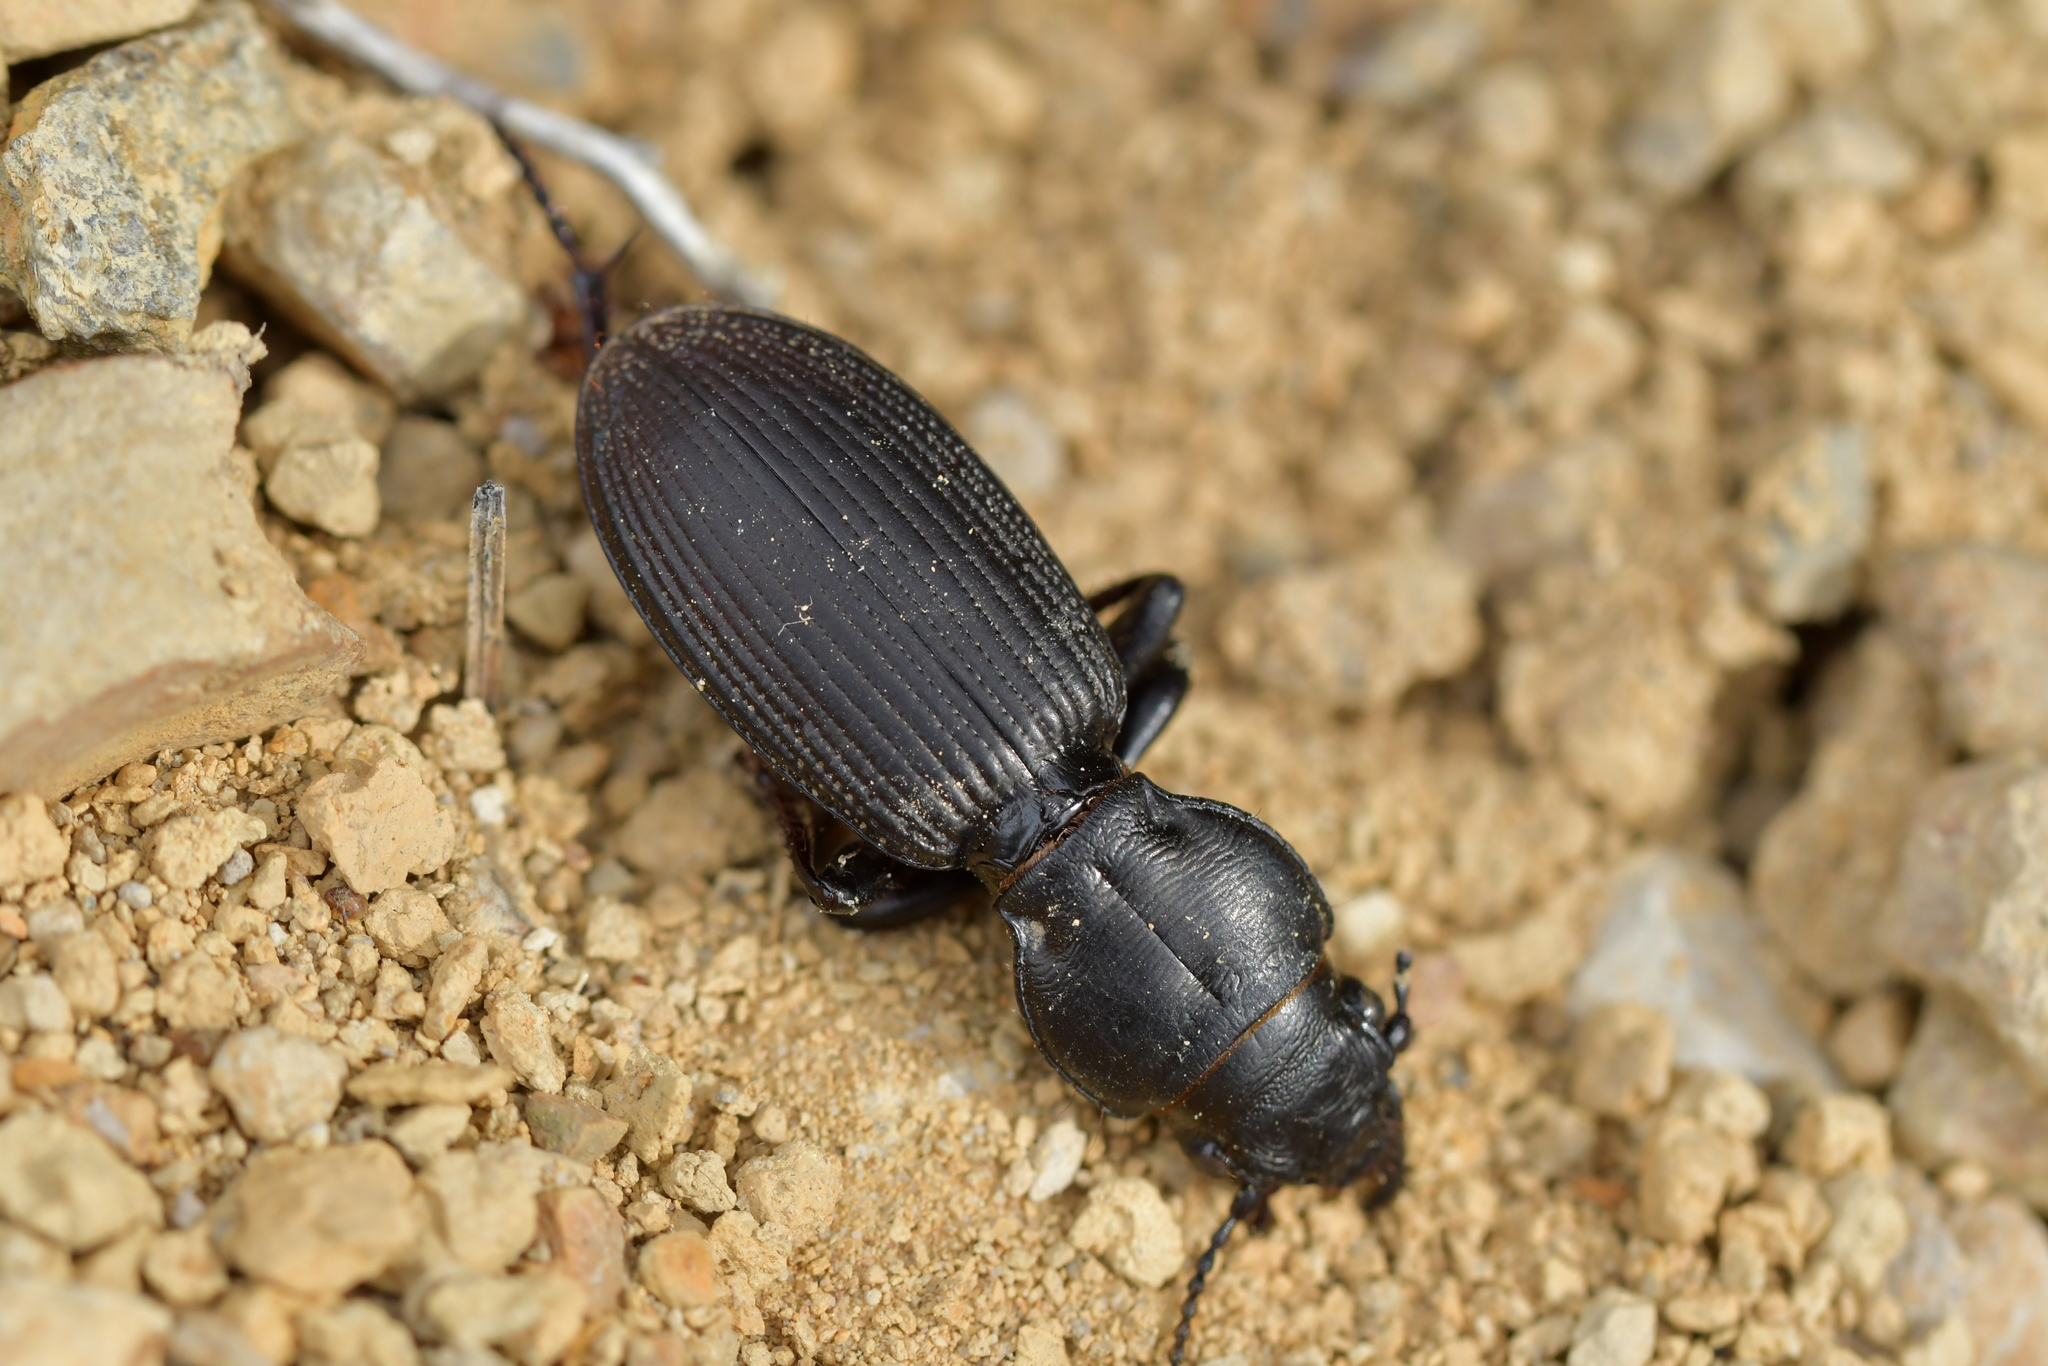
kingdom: Animalia
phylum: Arthropoda
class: Insecta
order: Coleoptera
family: Carabidae
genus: Mecodema
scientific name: Mecodema simplex
